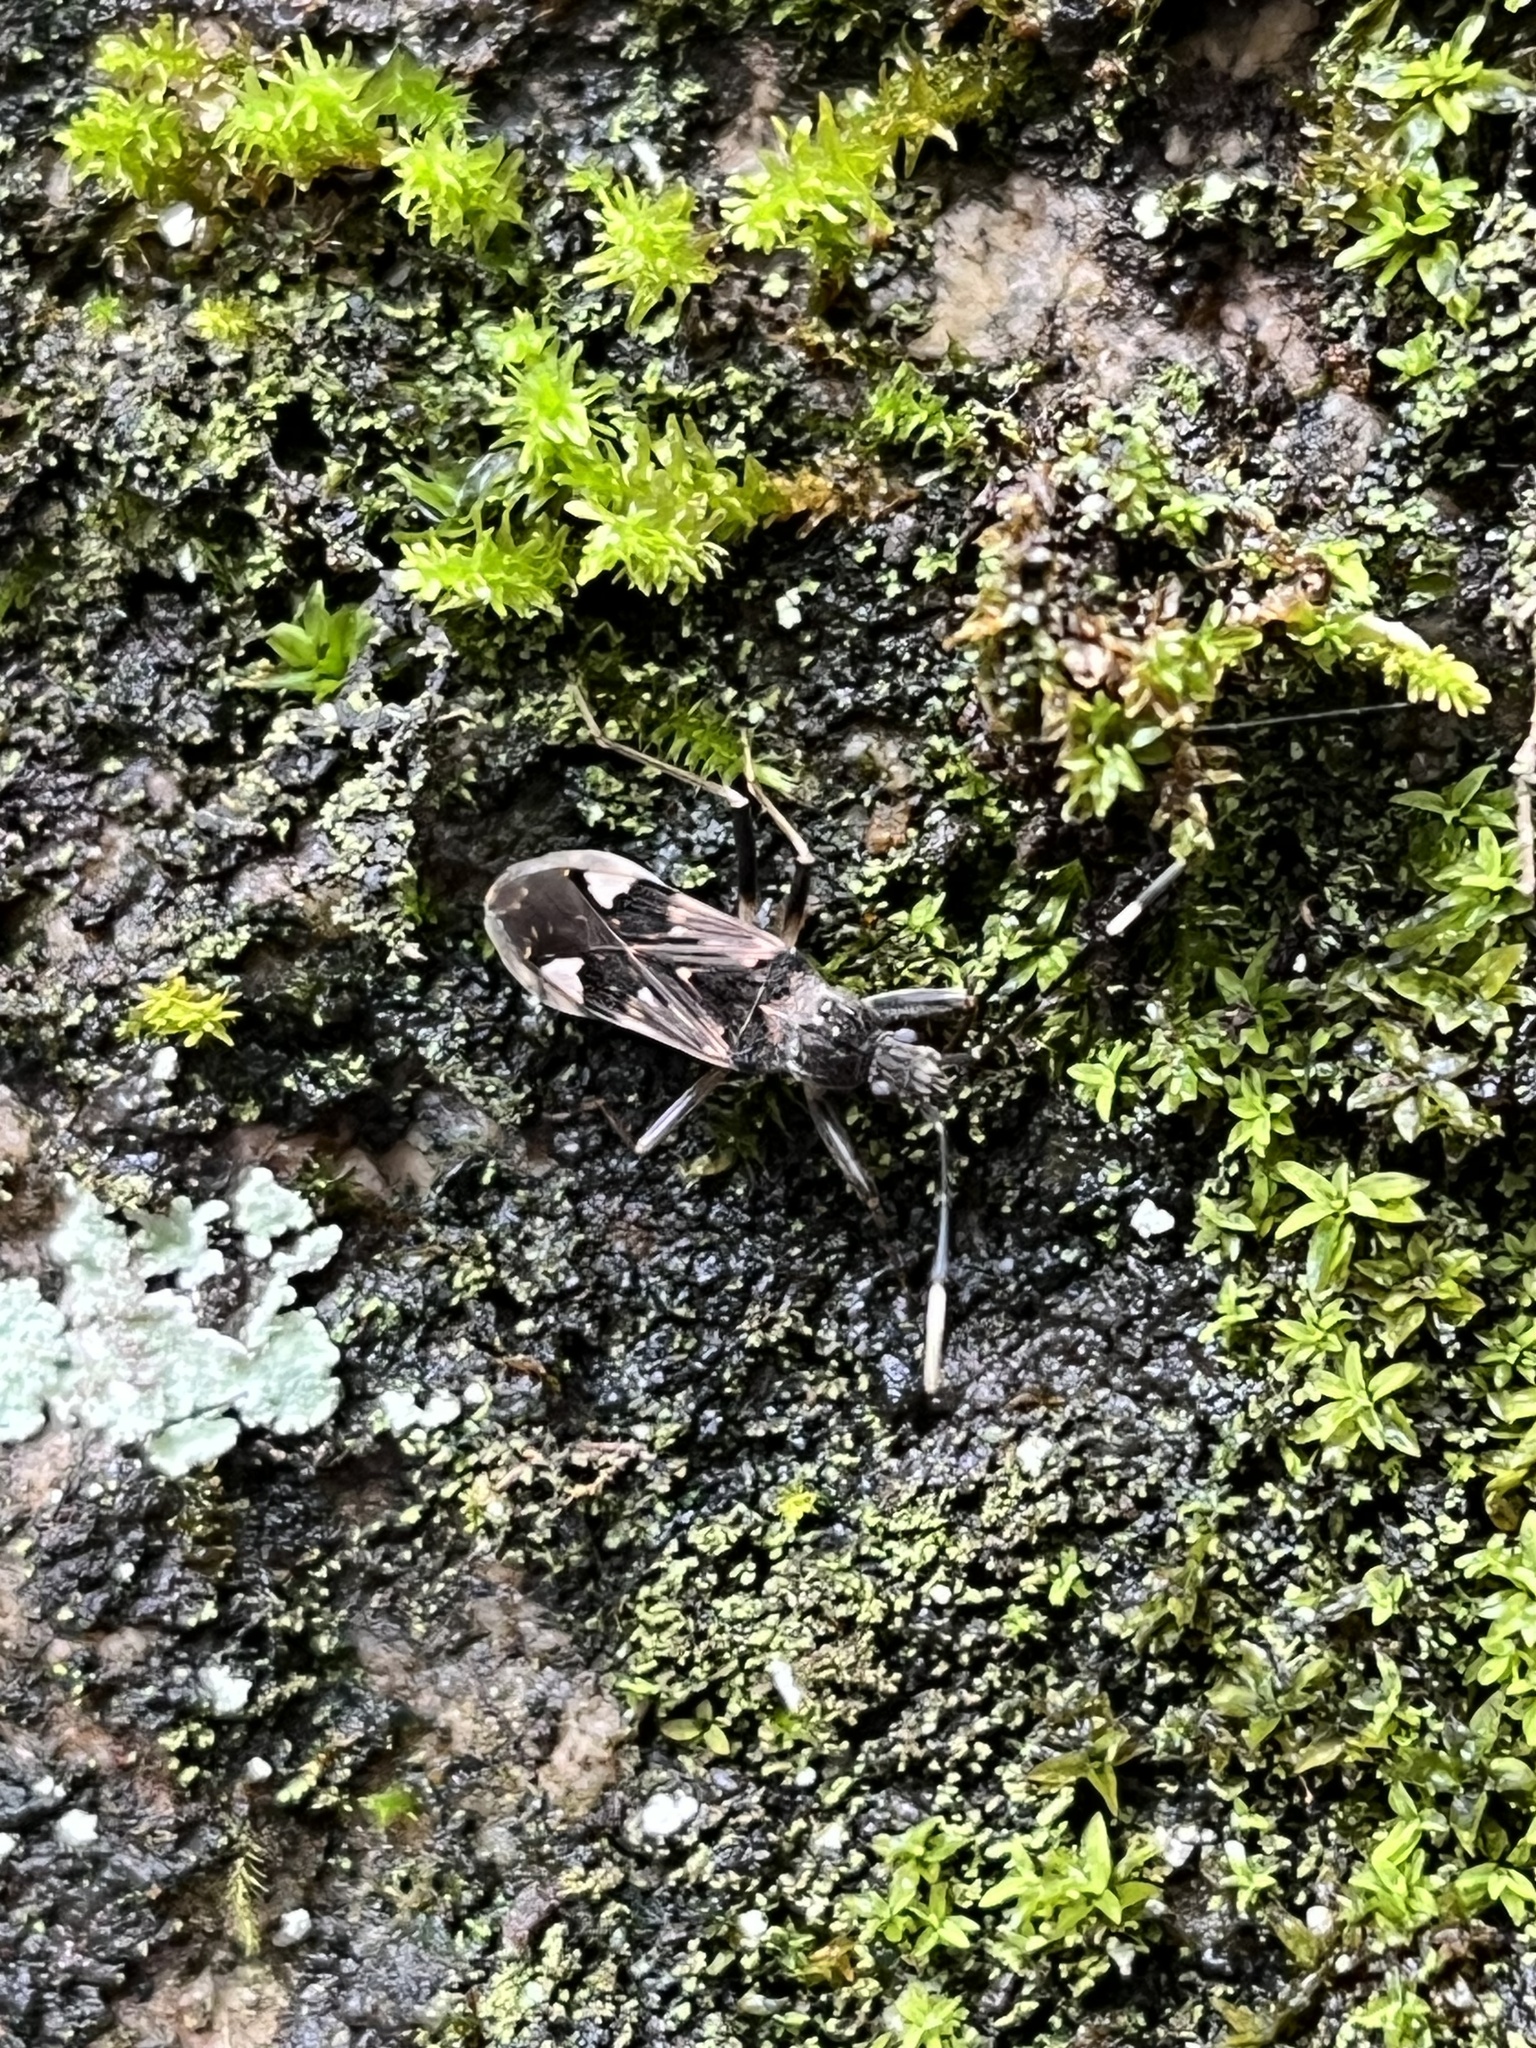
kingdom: Animalia
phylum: Arthropoda
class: Insecta
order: Hemiptera
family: Rhyparochromidae
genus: Metochus
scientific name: Metochus abbreviatus
